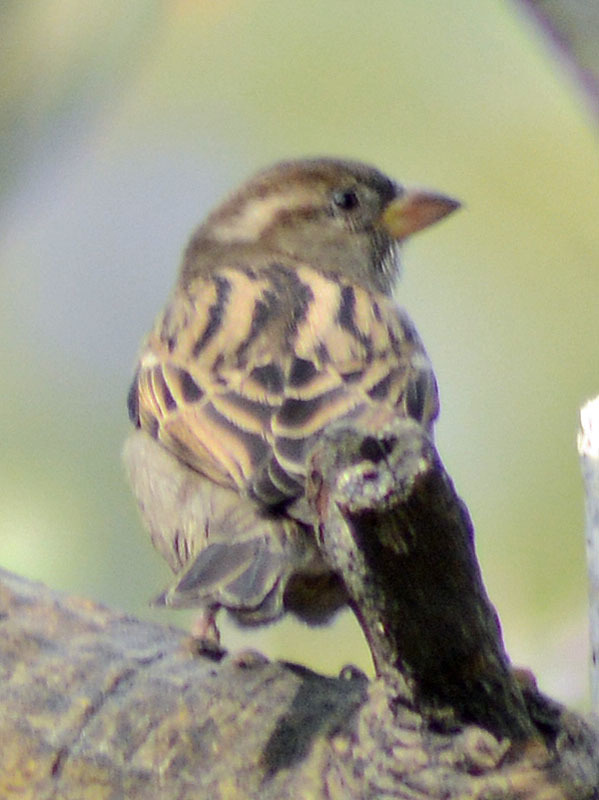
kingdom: Animalia
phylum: Chordata
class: Aves
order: Passeriformes
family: Passeridae
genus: Passer
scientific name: Passer domesticus
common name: House sparrow
